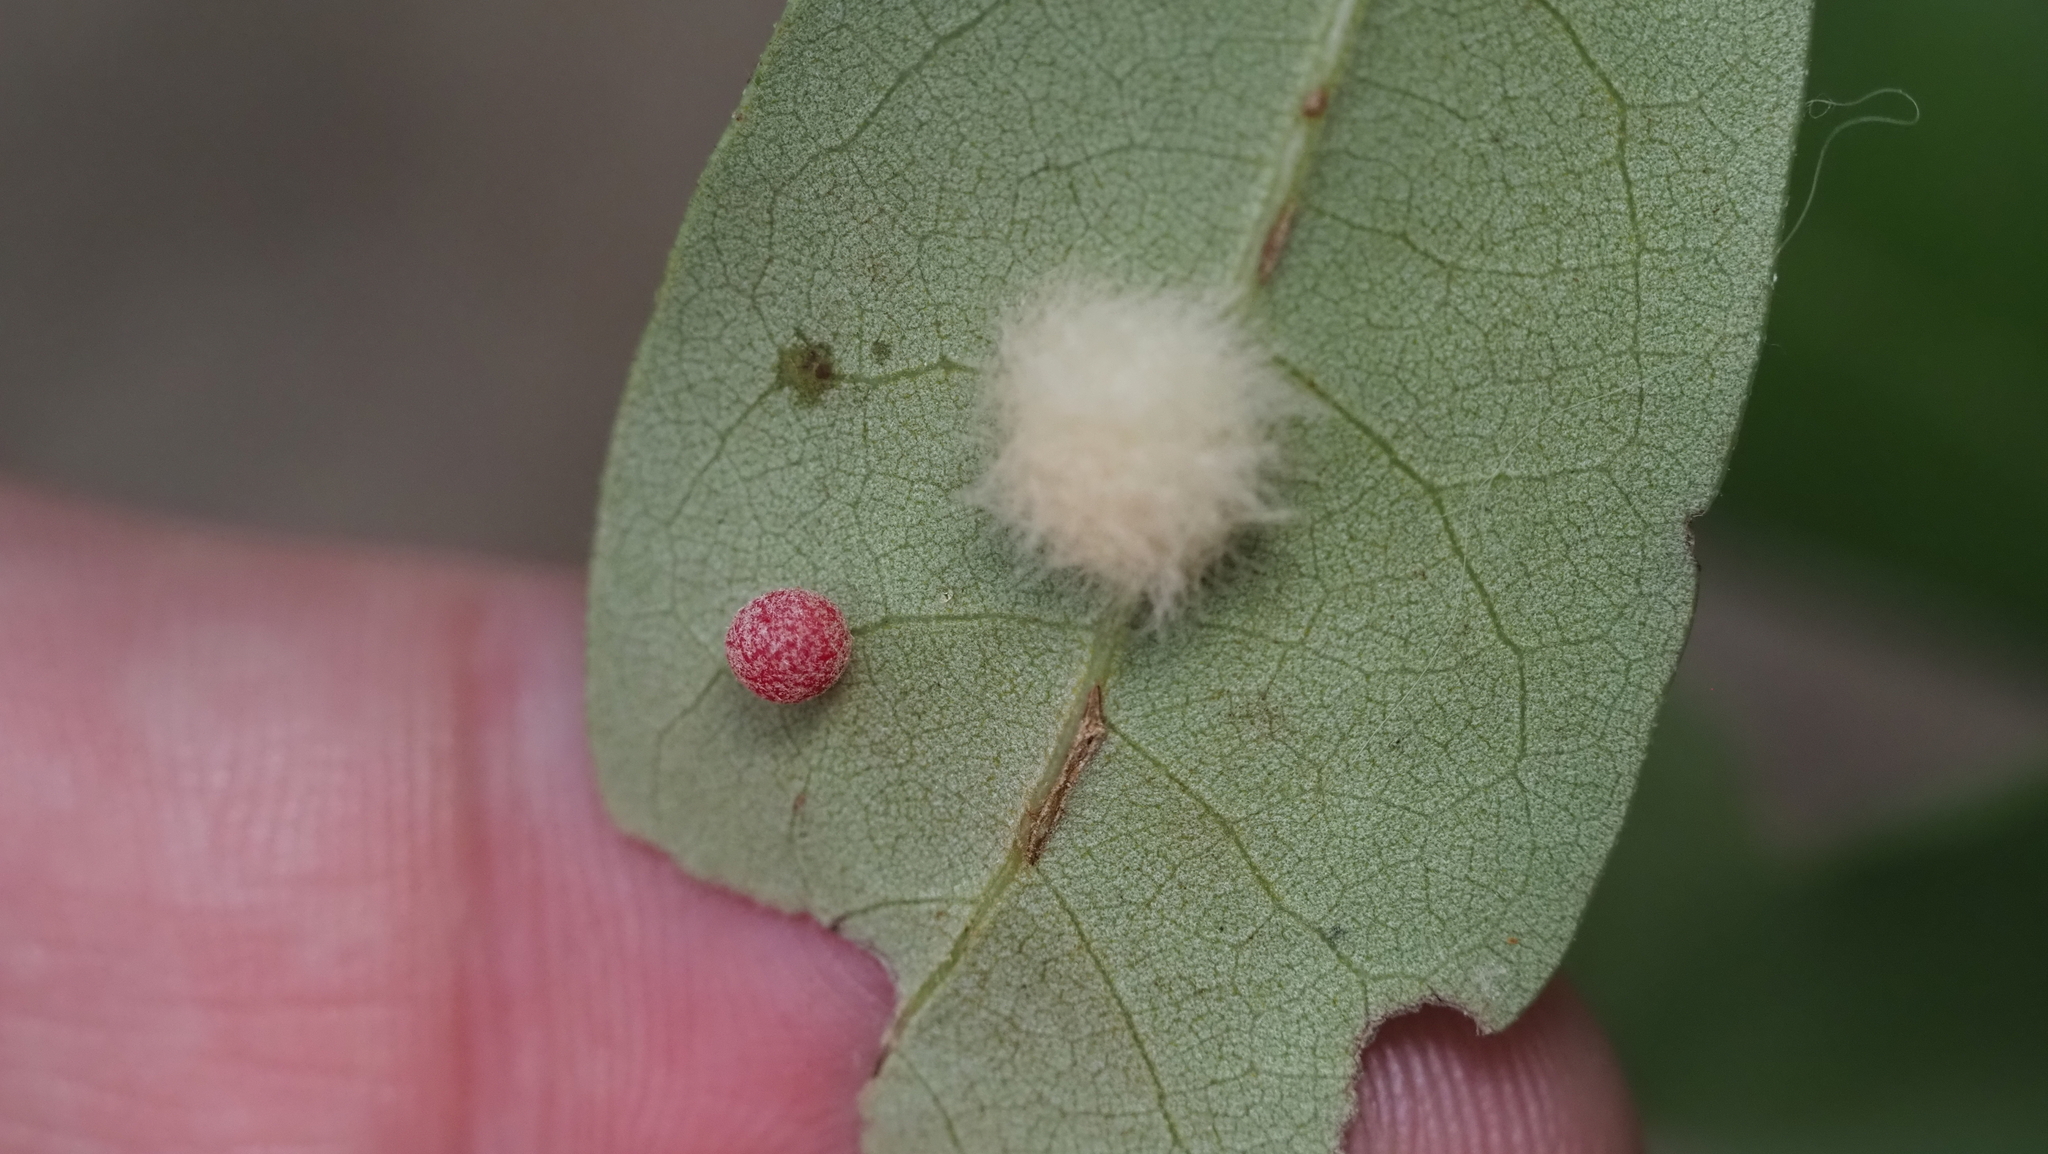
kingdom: Animalia
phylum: Arthropoda
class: Insecta
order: Hymenoptera
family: Cynipidae
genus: Belonocnema
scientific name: Belonocnema kinseyi
